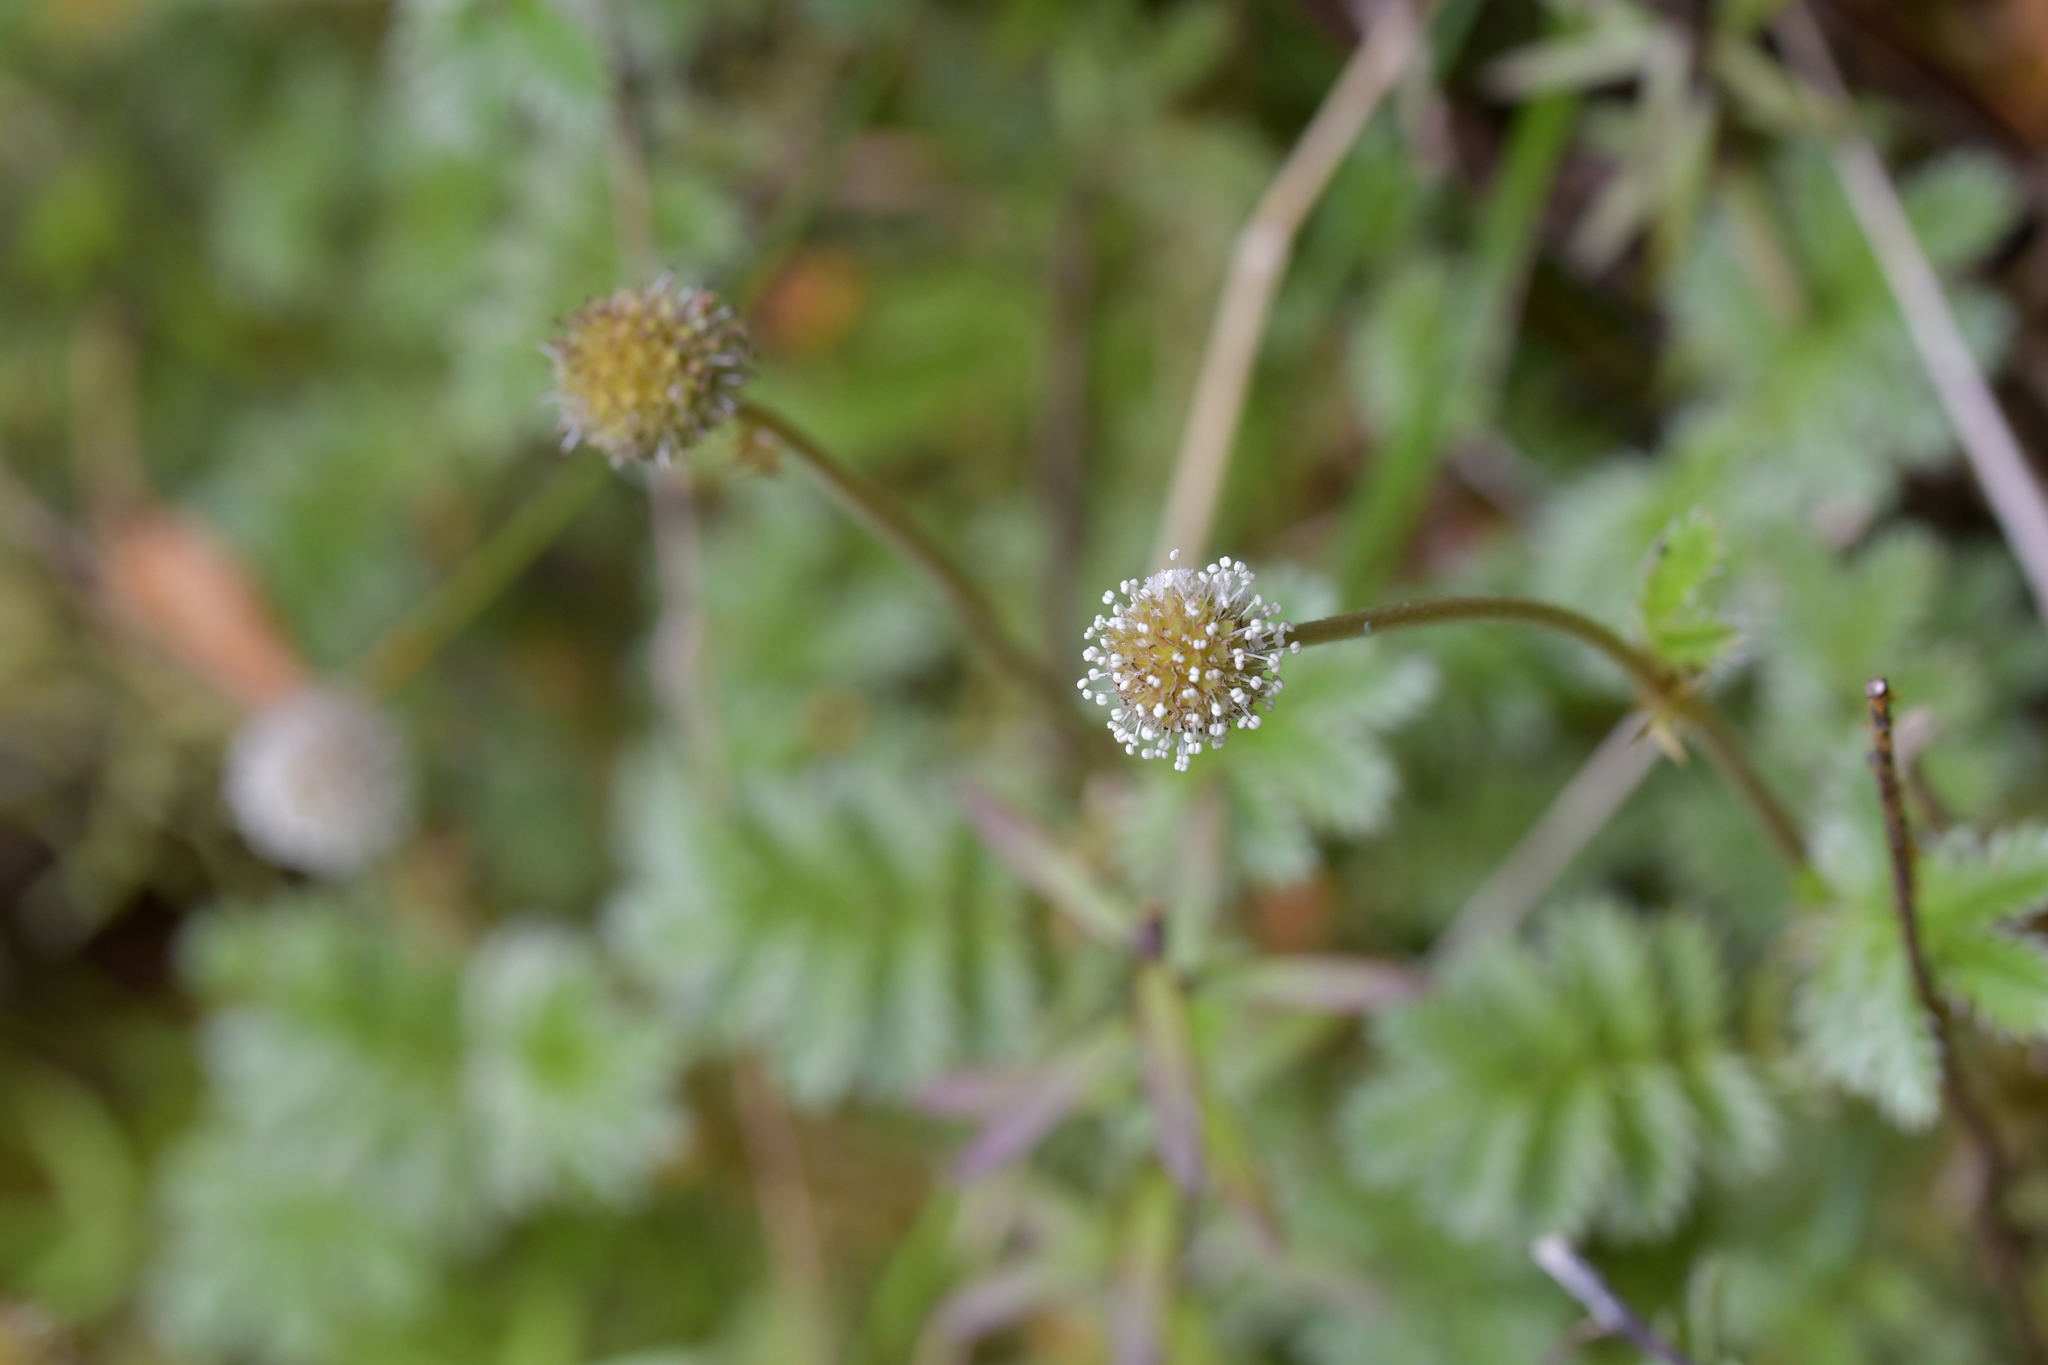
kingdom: Plantae
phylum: Tracheophyta
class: Magnoliopsida
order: Rosales
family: Rosaceae
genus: Acaena
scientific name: Acaena anserinifolia
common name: Bronze pirri-pirri-bur
